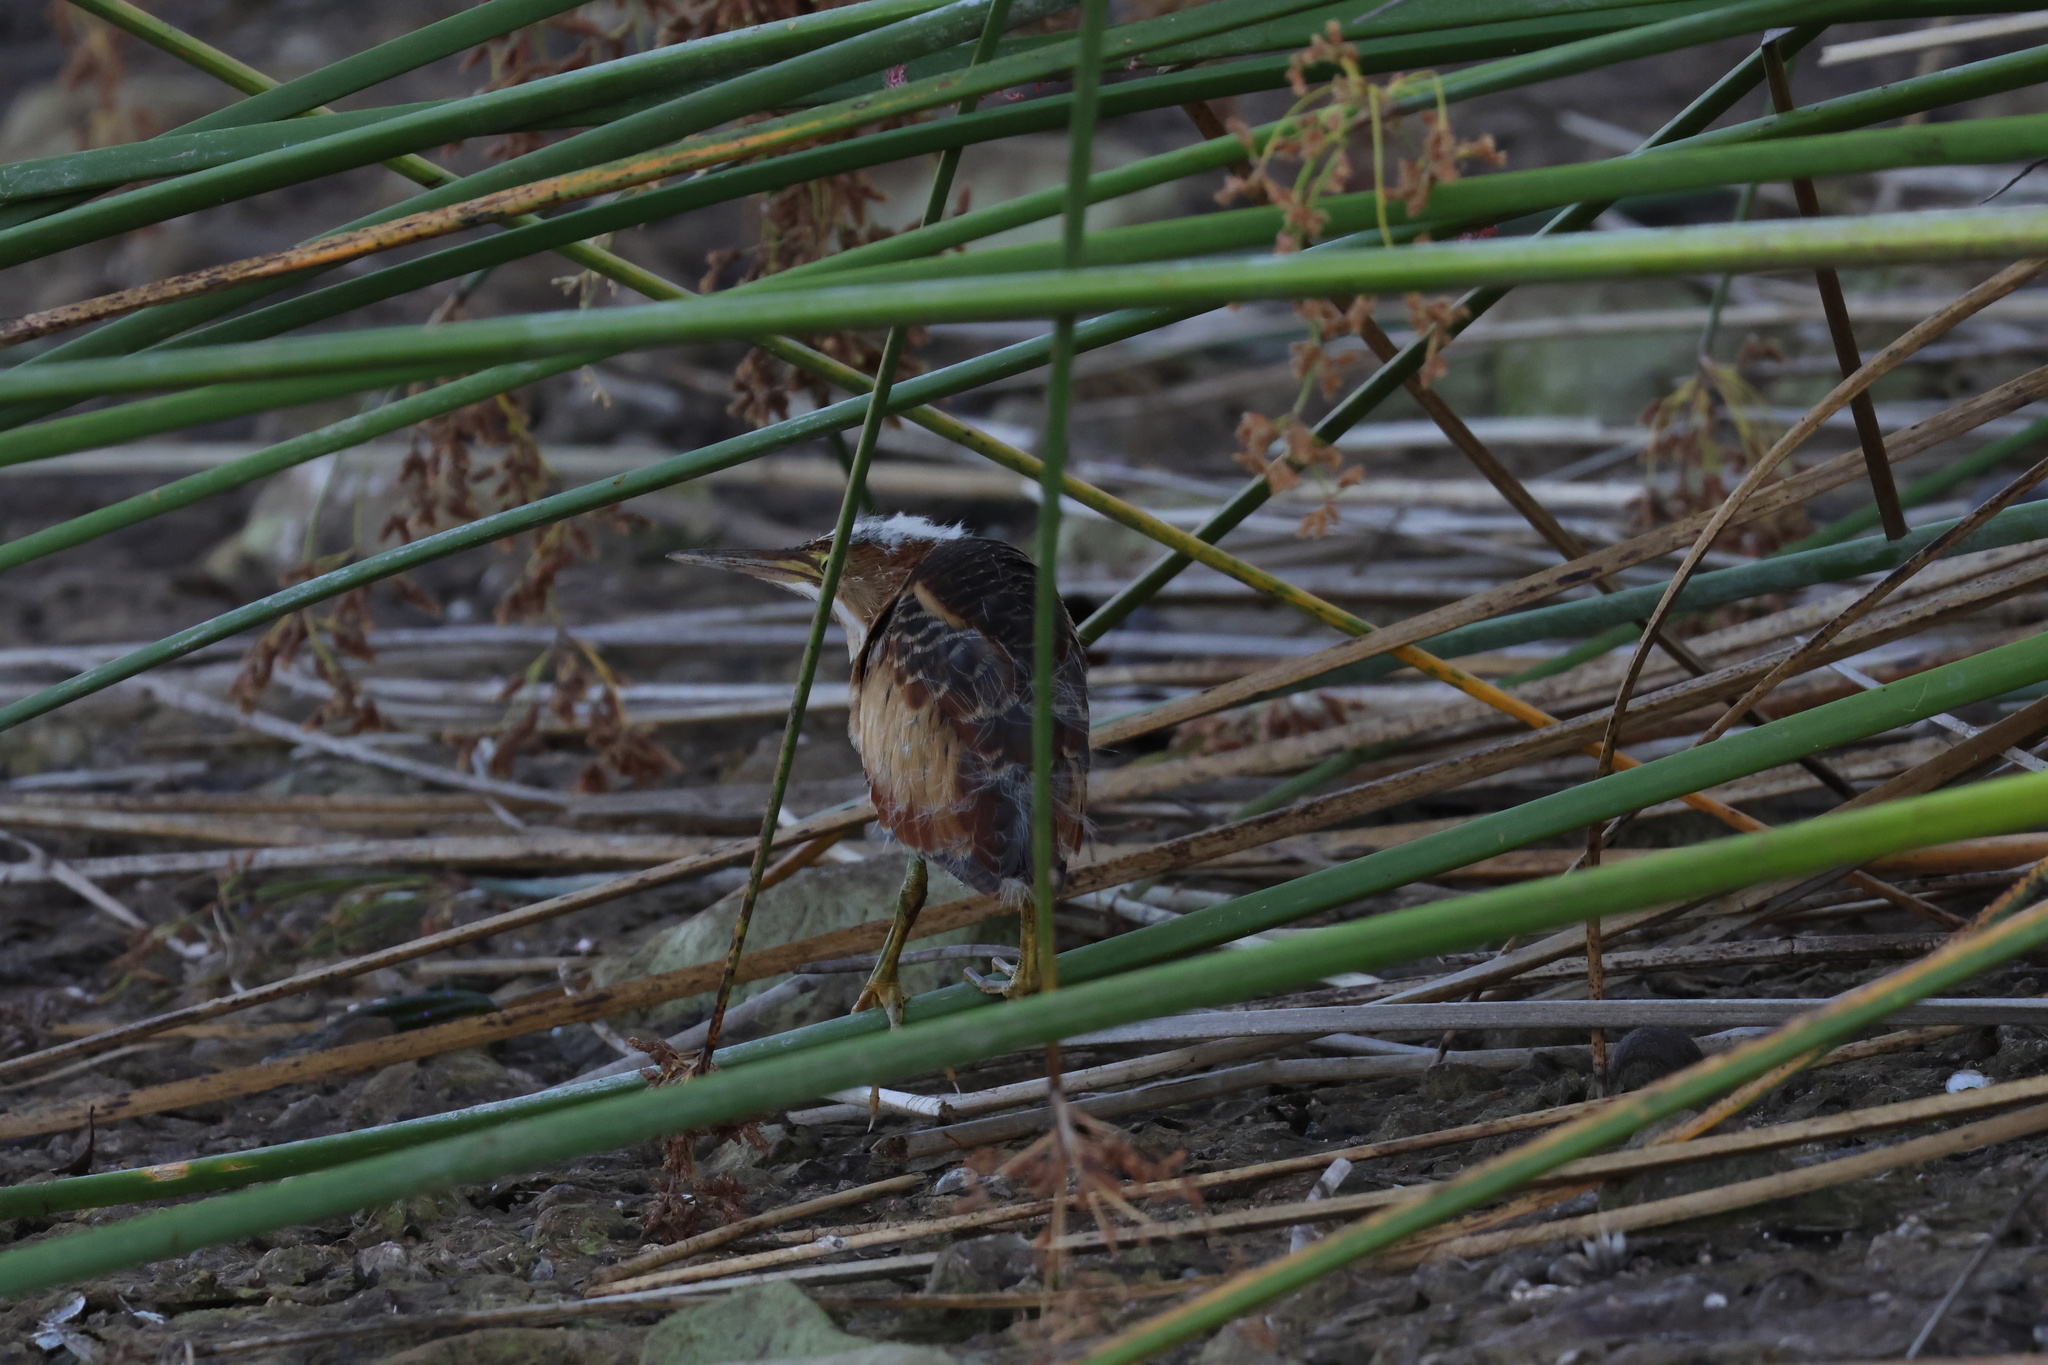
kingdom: Animalia
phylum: Chordata
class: Aves
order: Pelecaniformes
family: Ardeidae
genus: Ixobrychus
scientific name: Ixobrychus exilis
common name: Least bittern
